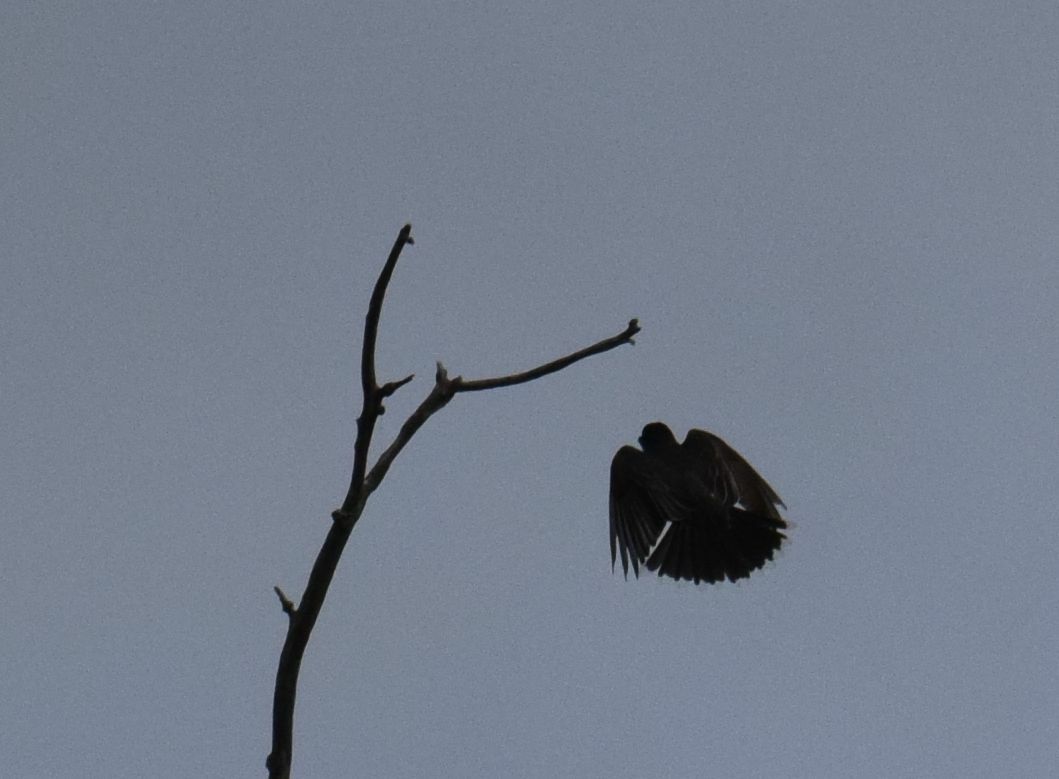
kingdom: Animalia
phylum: Chordata
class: Aves
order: Passeriformes
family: Tyrannidae
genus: Tyrannus
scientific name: Tyrannus tyrannus
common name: Eastern kingbird
